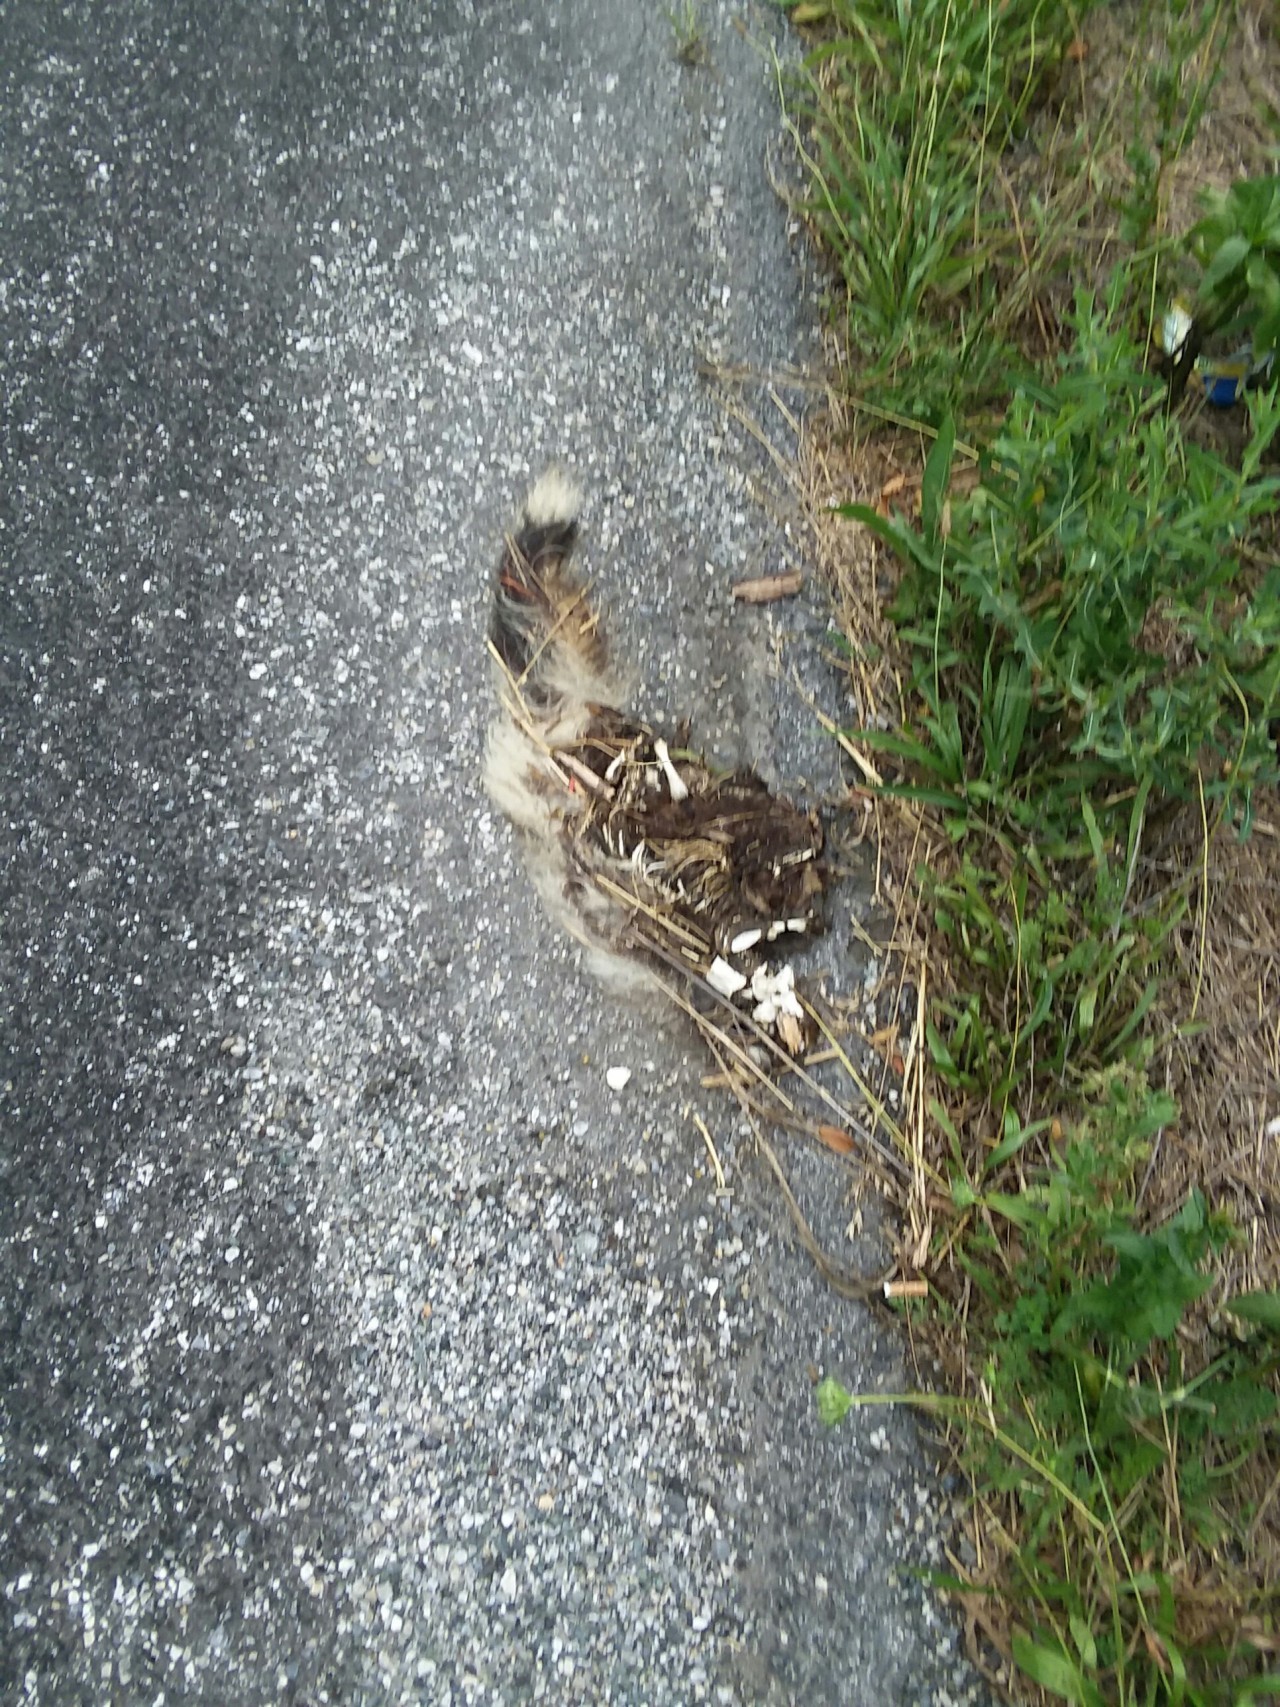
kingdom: Animalia
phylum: Chordata
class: Mammalia
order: Carnivora
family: Mephitidae
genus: Mephitis
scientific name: Mephitis mephitis
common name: Striped skunk
